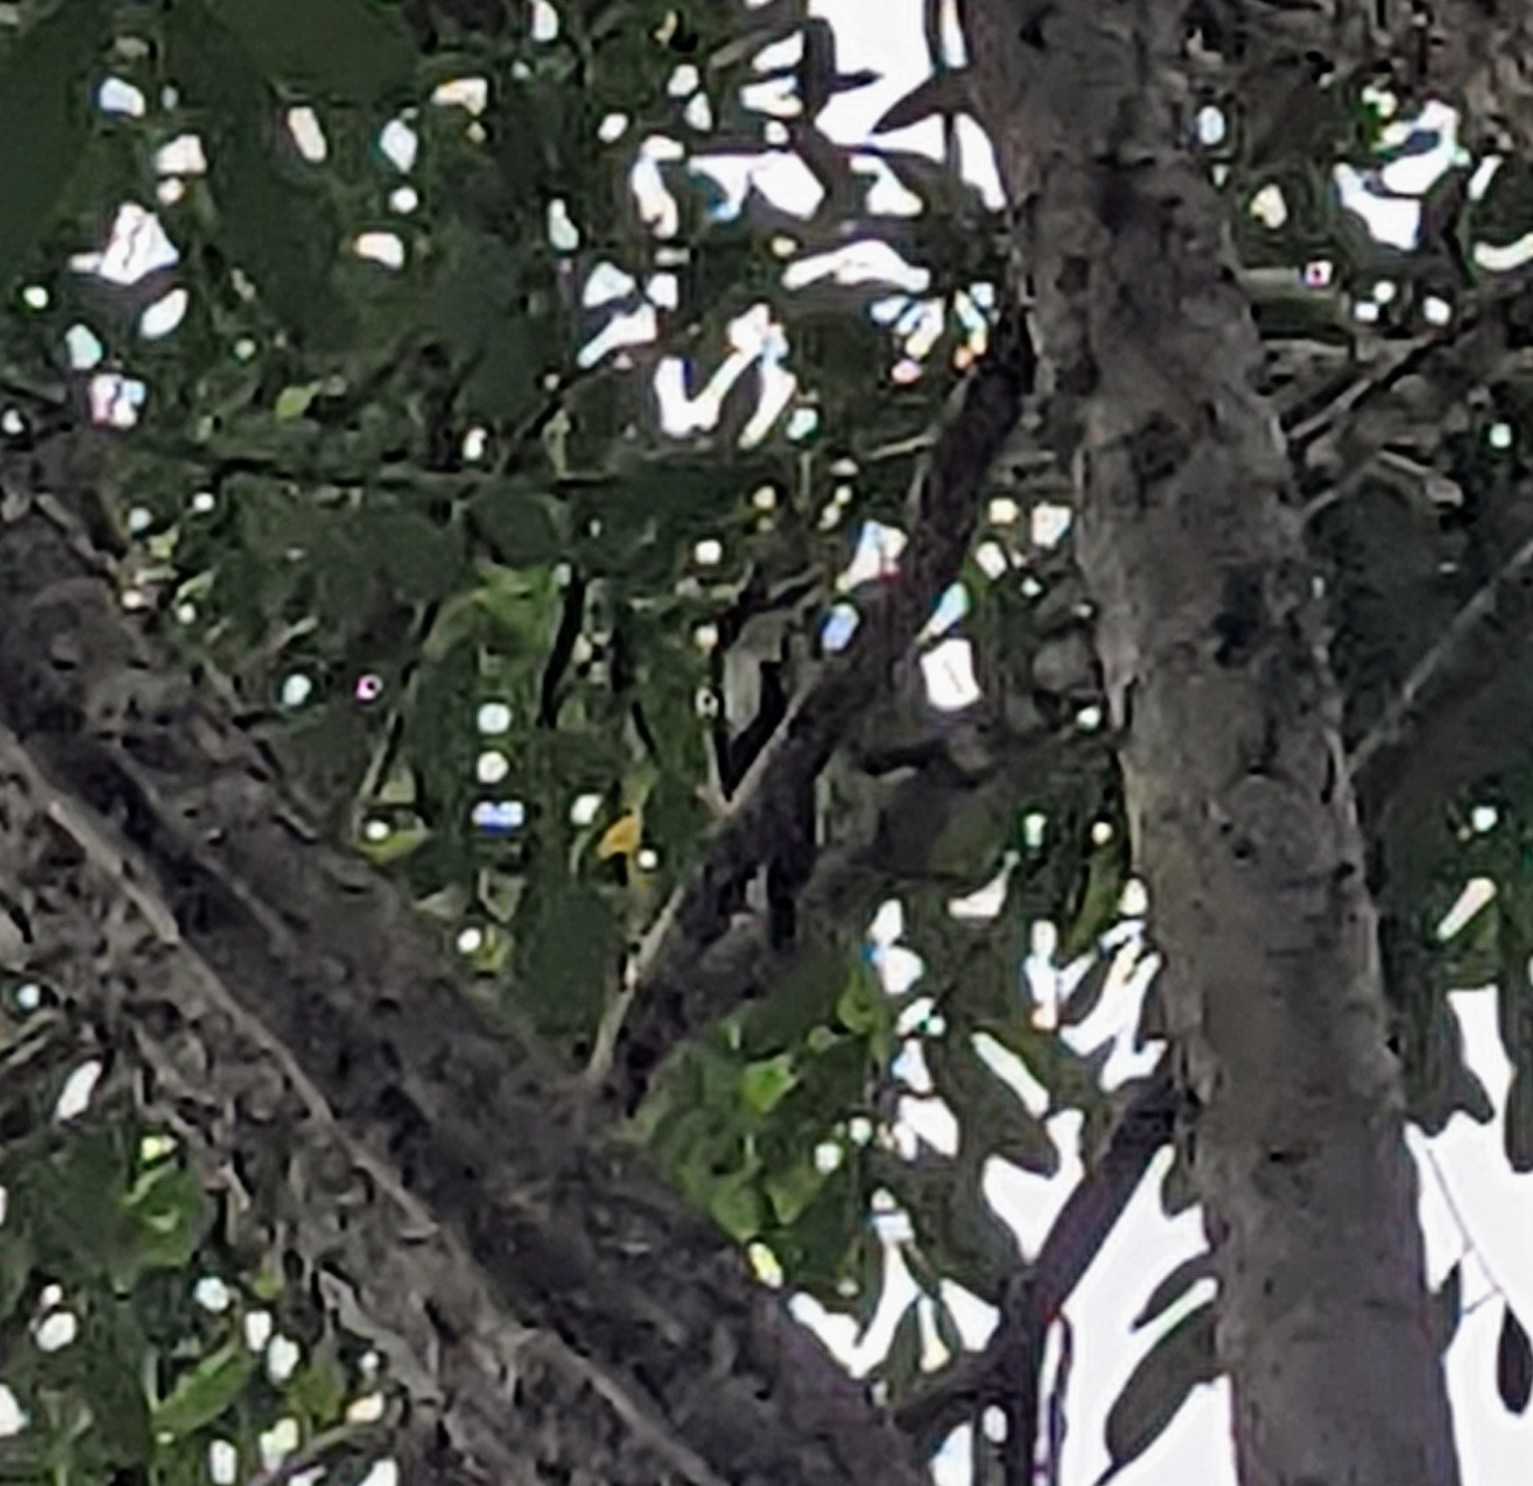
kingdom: Animalia
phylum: Chordata
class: Aves
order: Coraciiformes
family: Alcedinidae
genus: Halcyon
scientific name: Halcyon smyrnensis
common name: White-throated kingfisher
